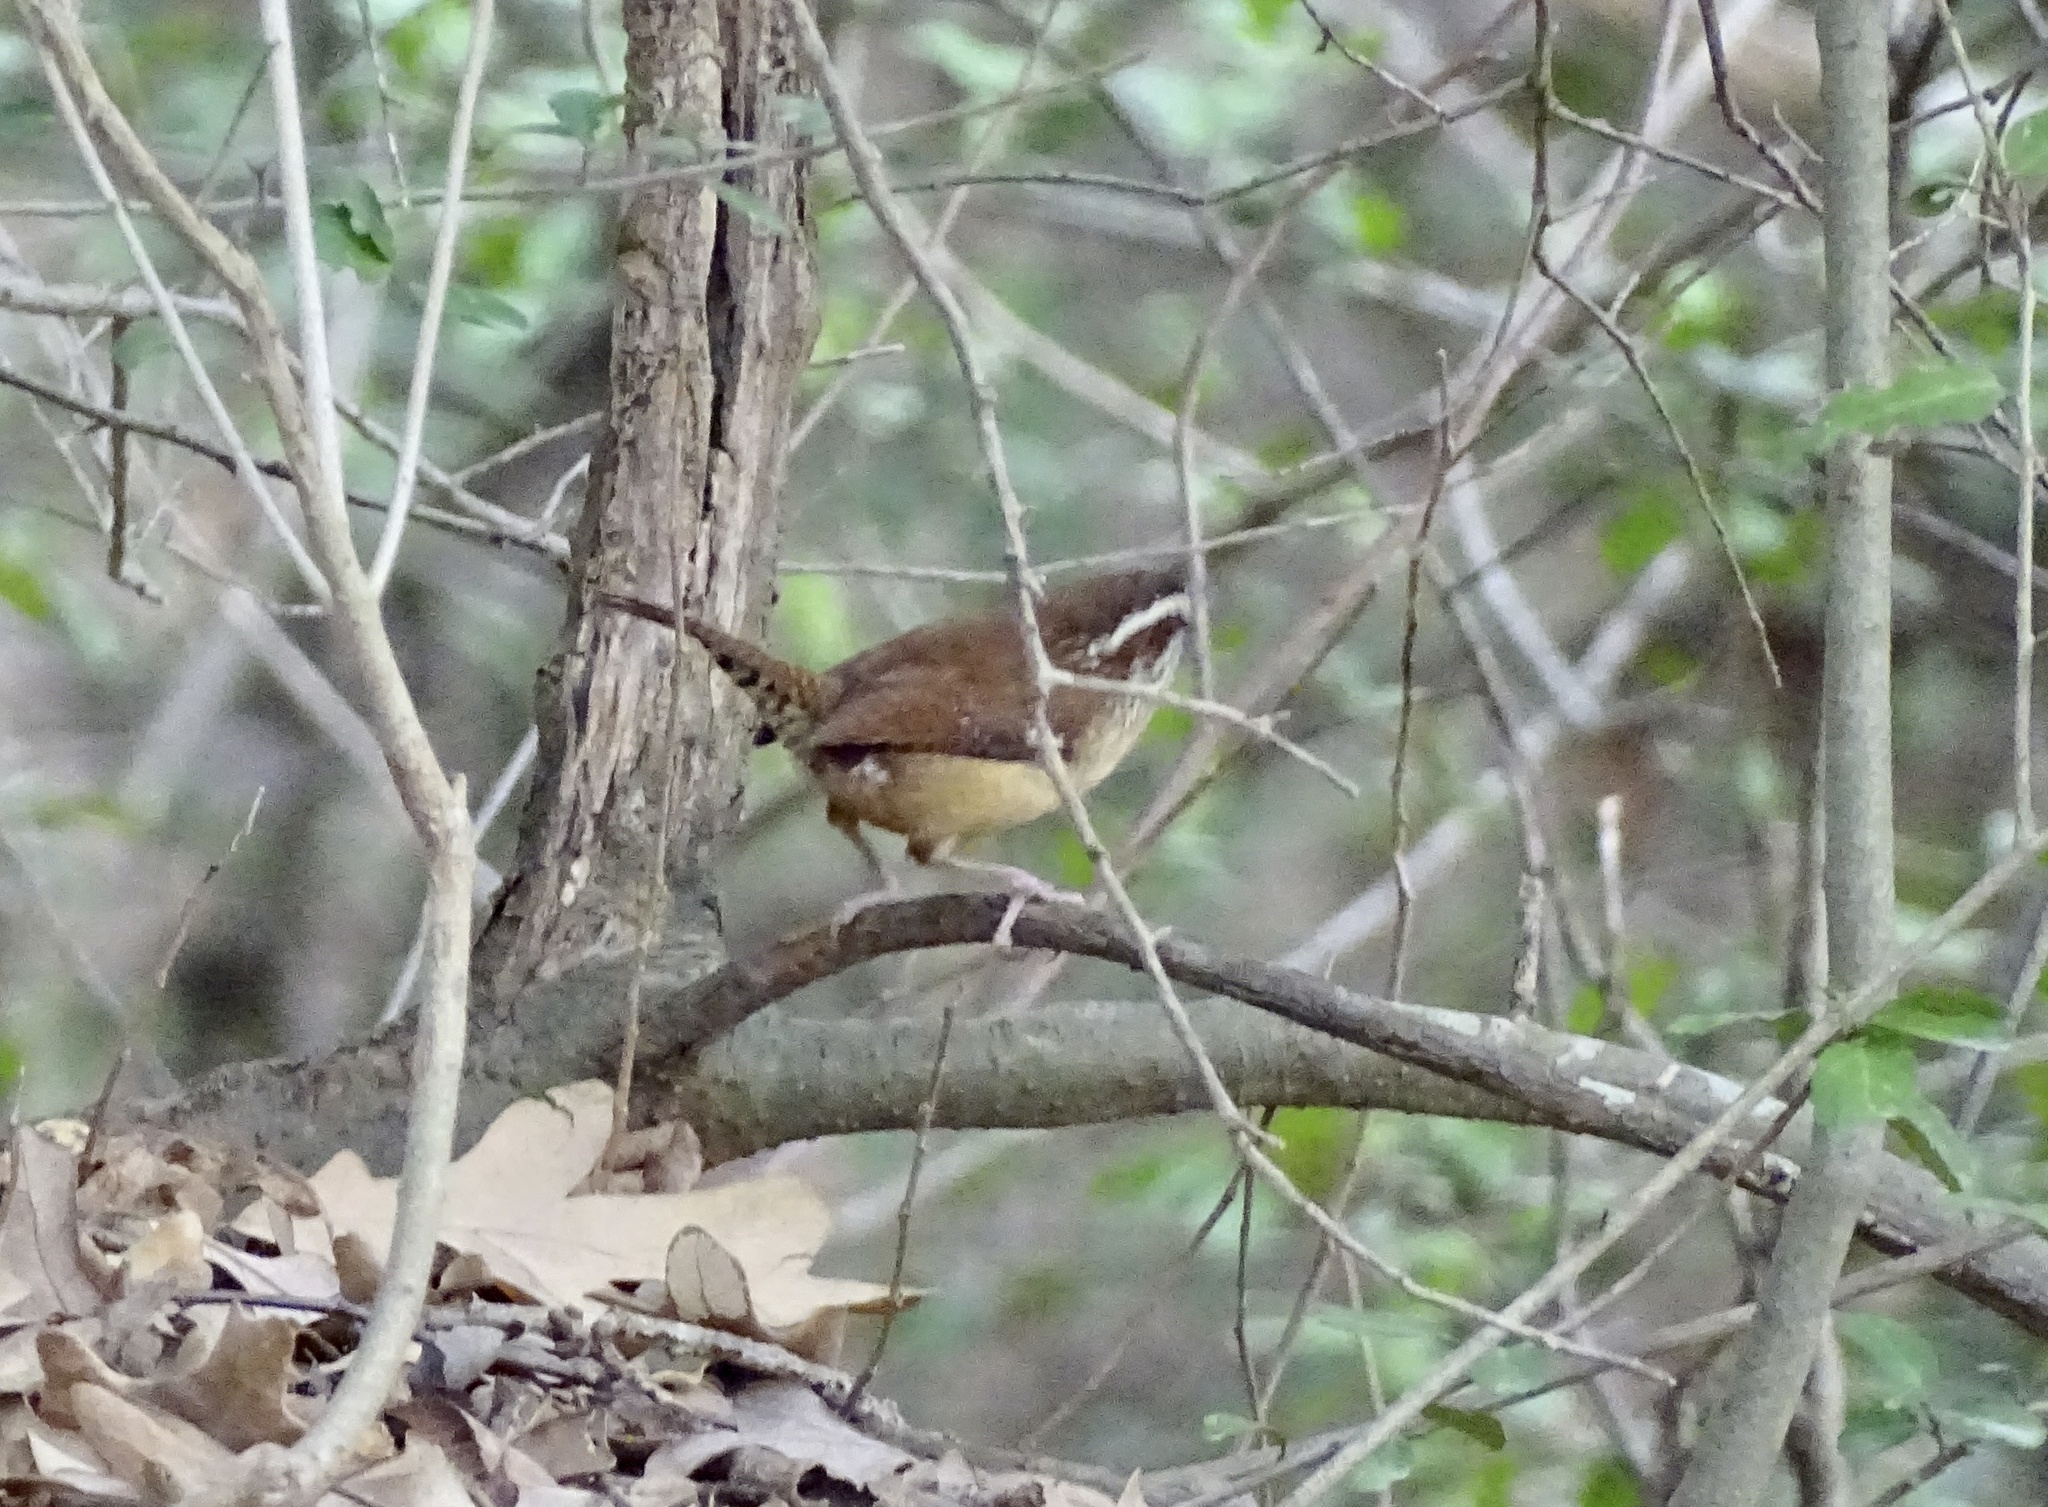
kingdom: Animalia
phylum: Chordata
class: Aves
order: Passeriformes
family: Troglodytidae
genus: Thryothorus
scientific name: Thryothorus ludovicianus
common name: Carolina wren
